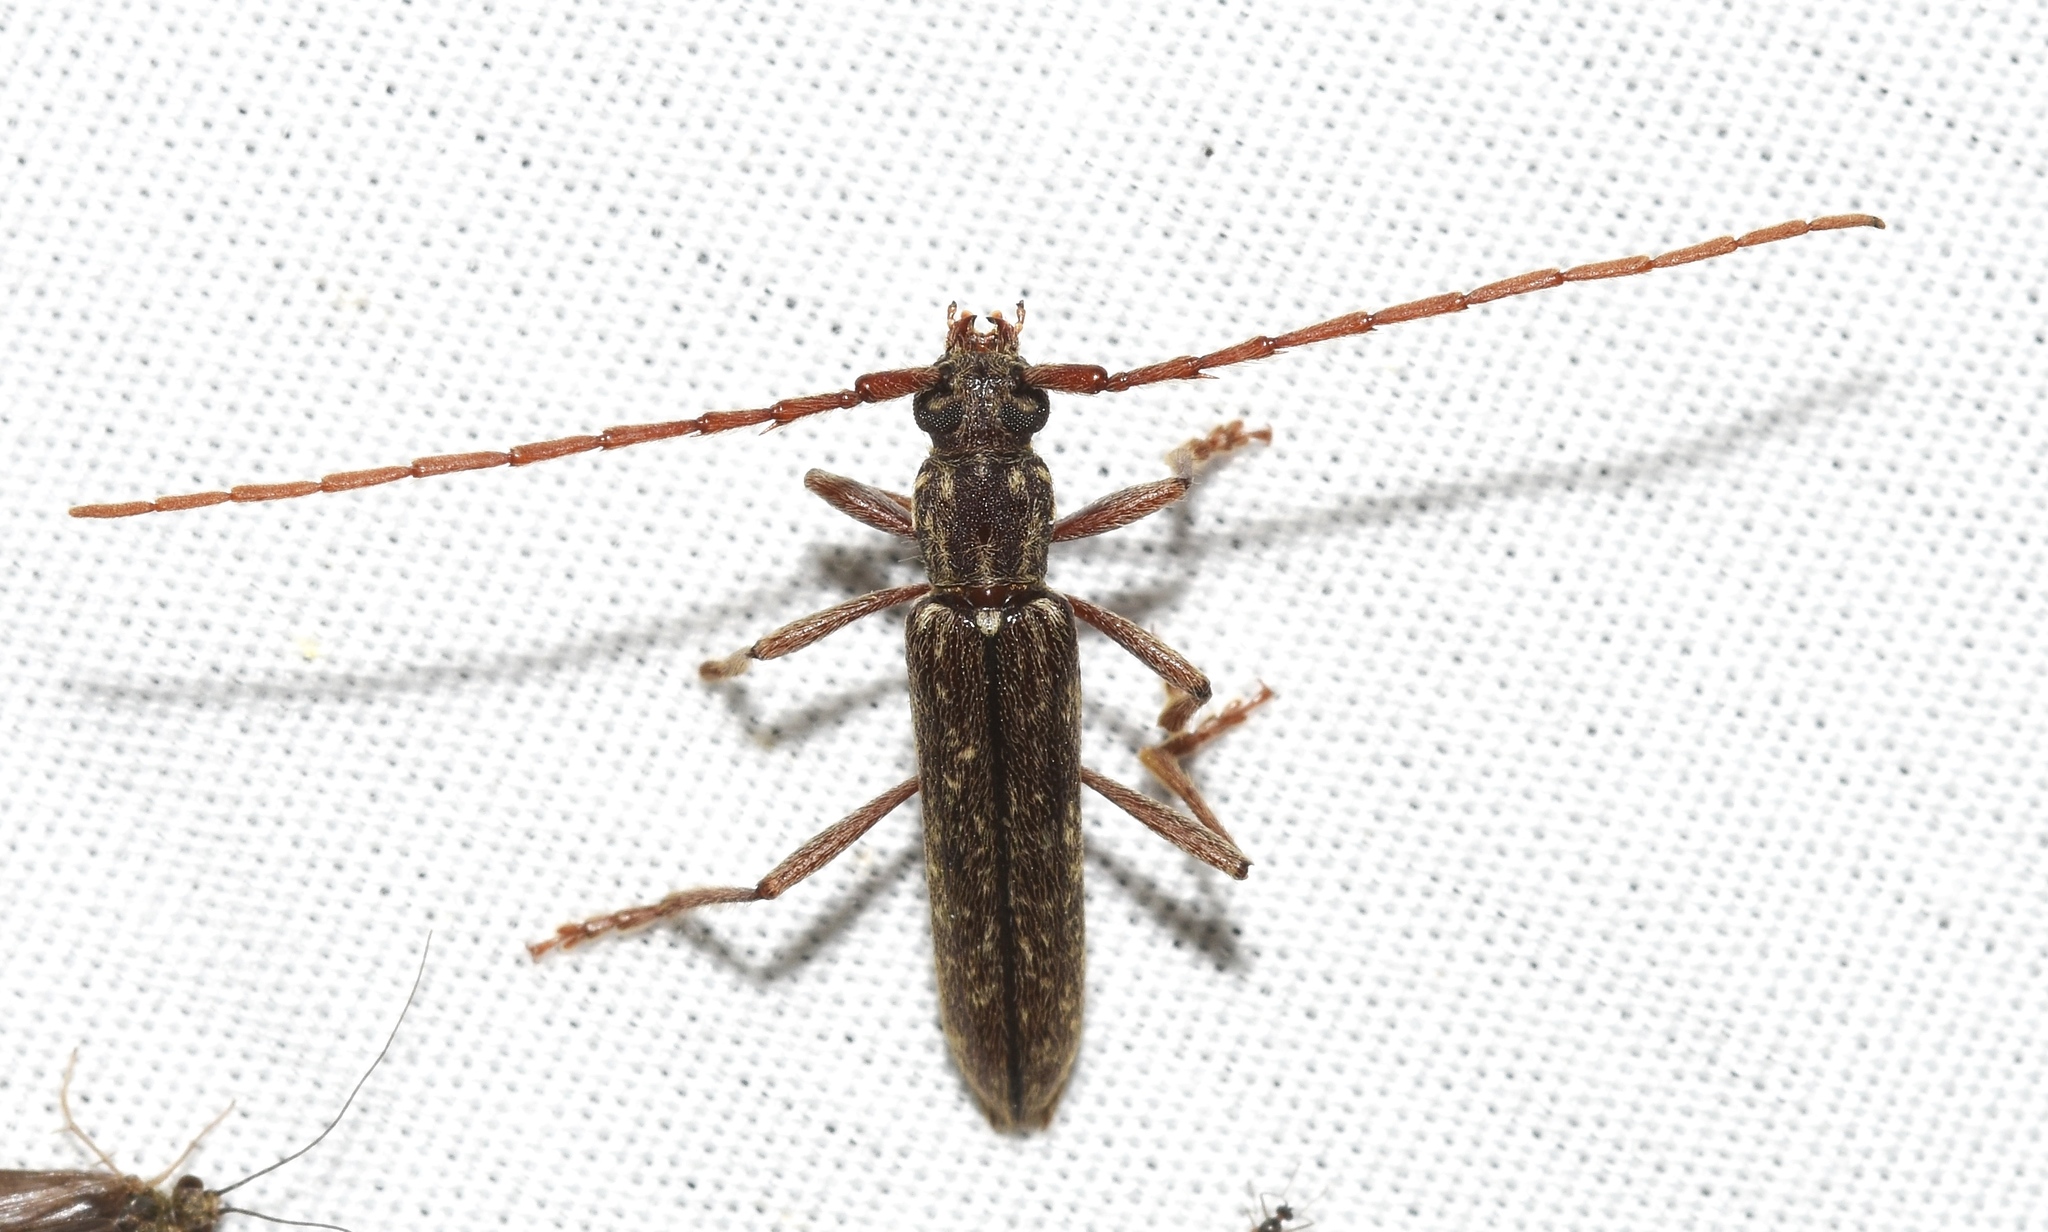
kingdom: Animalia
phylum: Arthropoda
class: Insecta
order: Coleoptera
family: Cerambycidae
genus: Anelaphus
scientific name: Anelaphus villosus
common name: Twig pruner
